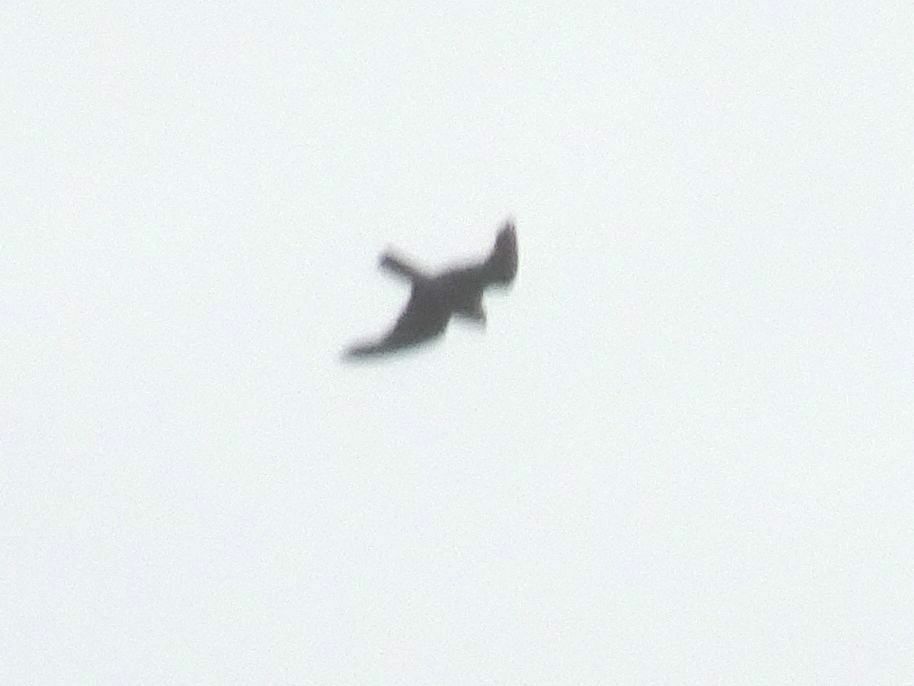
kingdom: Animalia
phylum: Chordata
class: Aves
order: Falconiformes
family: Falconidae
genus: Falco
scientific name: Falco peregrinus
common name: Peregrine falcon
